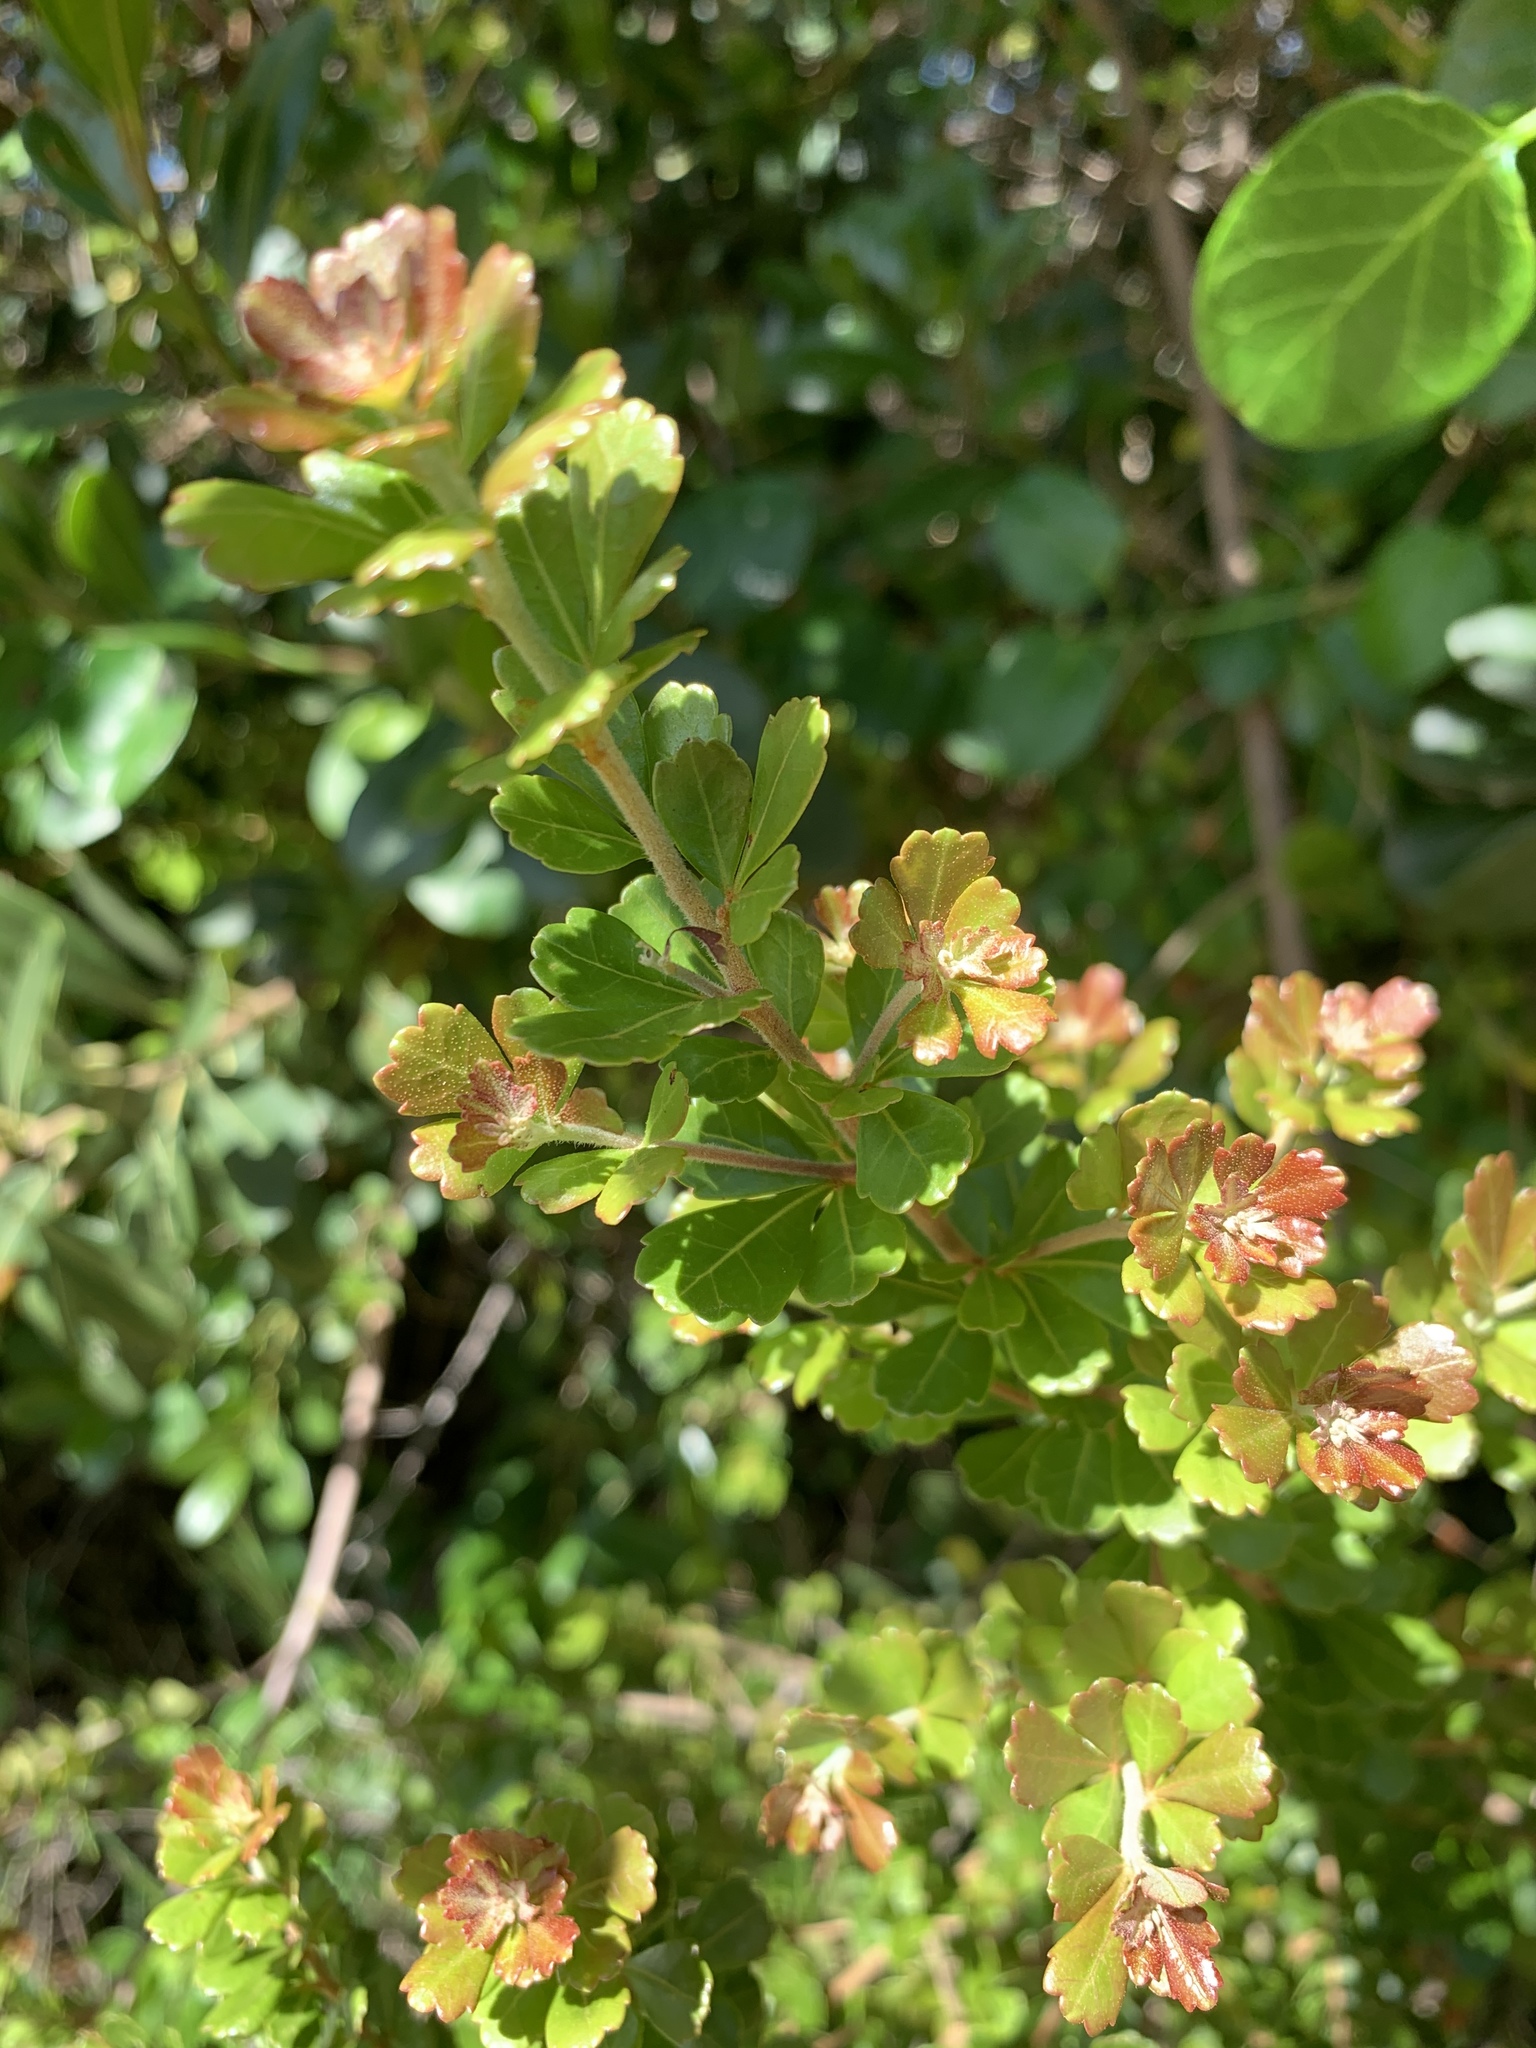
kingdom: Plantae
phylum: Tracheophyta
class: Magnoliopsida
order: Sapindales
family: Anacardiaceae
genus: Searsia
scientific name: Searsia crenata
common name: Crowberry
